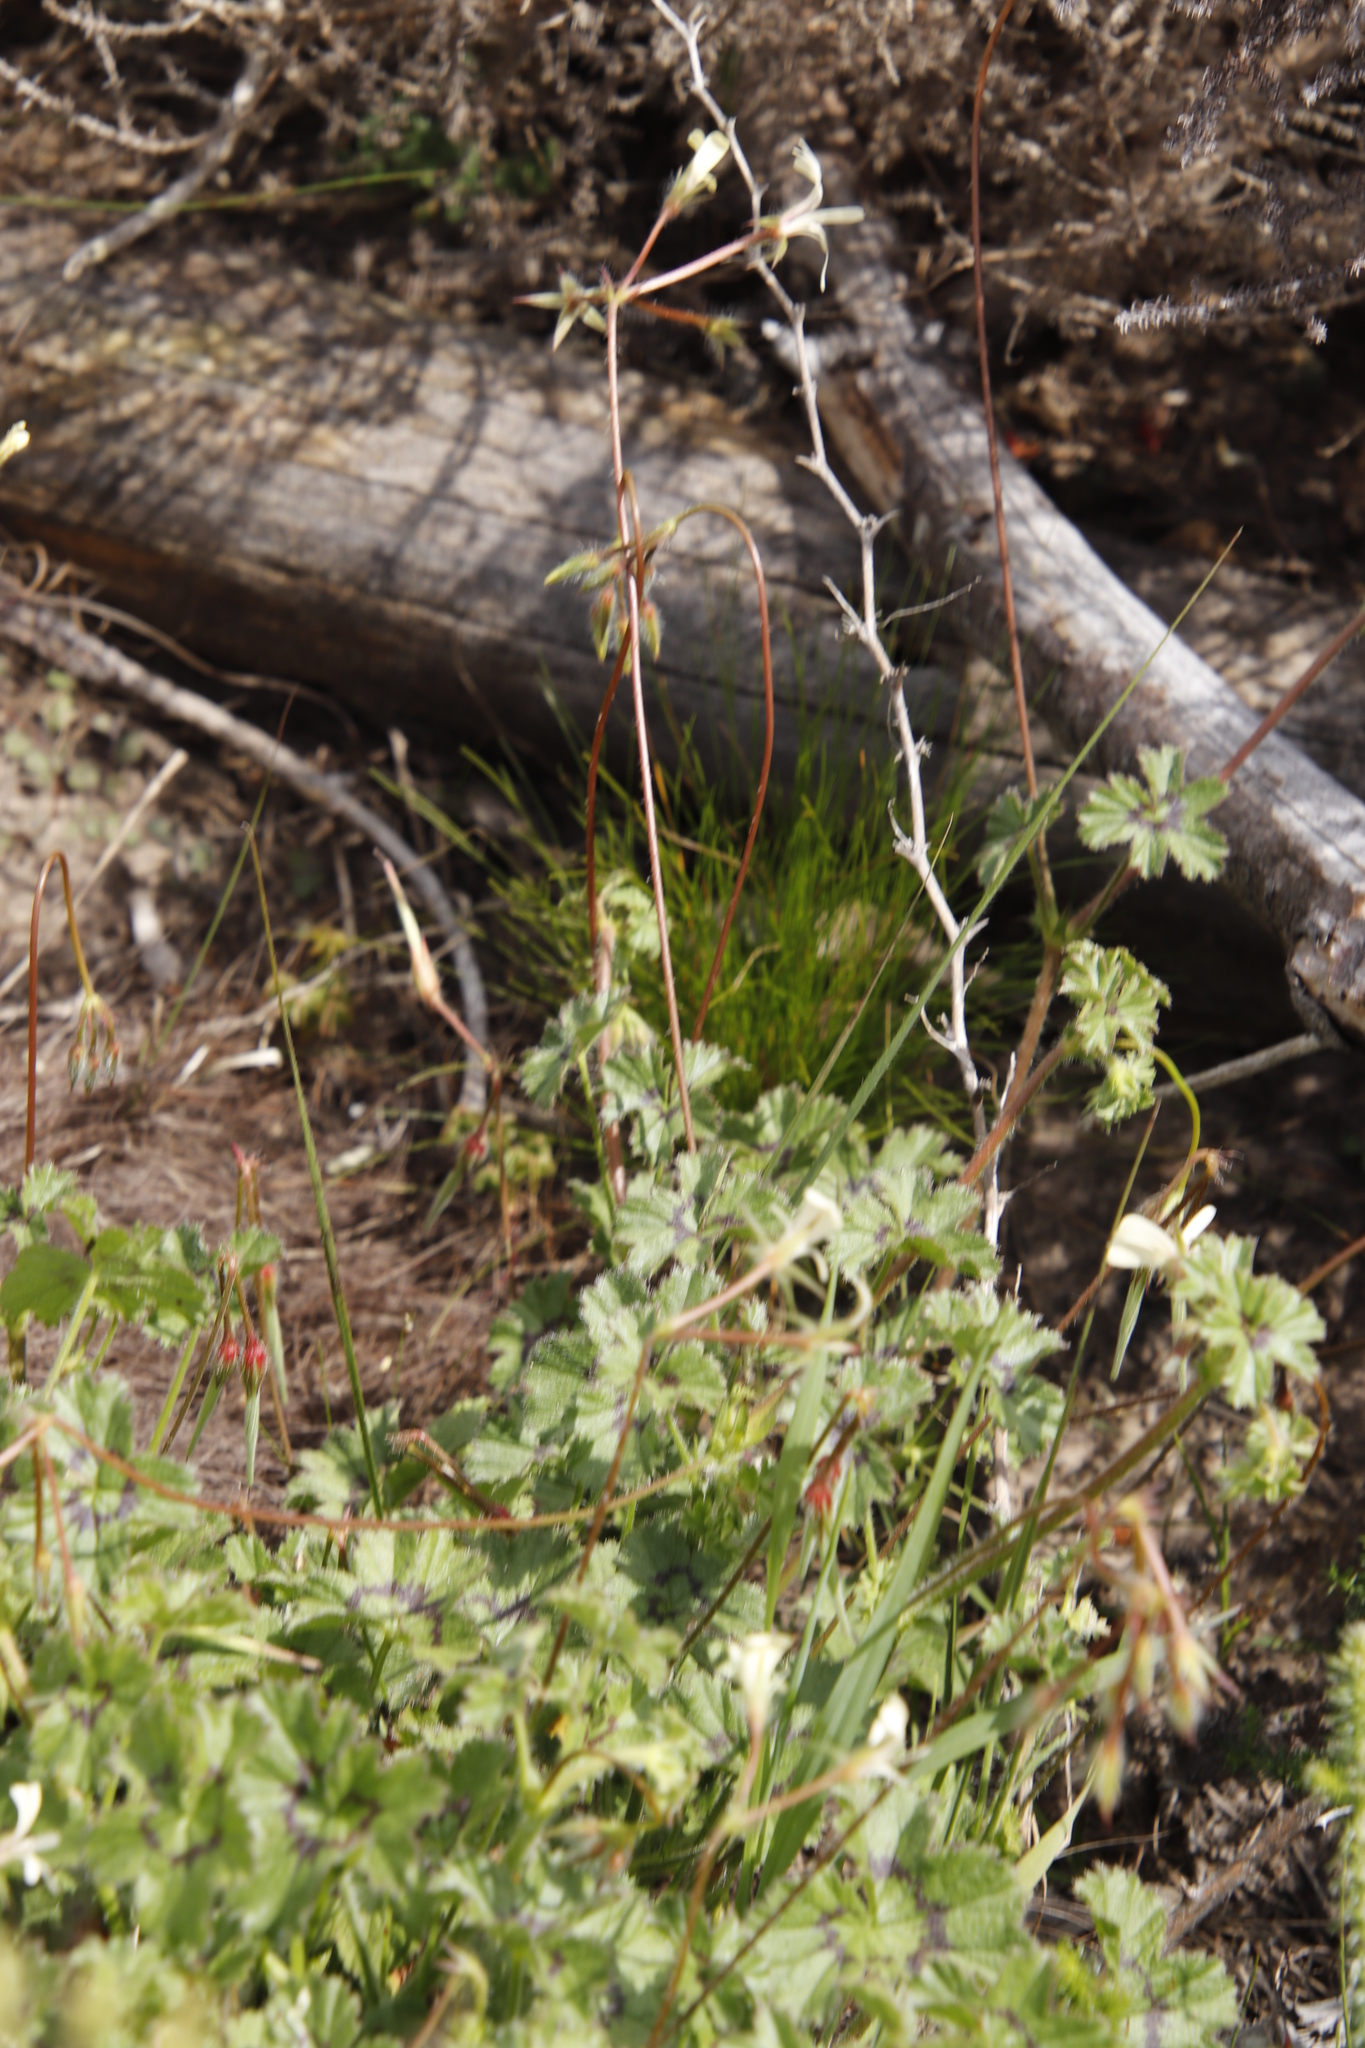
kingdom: Plantae
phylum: Tracheophyta
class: Magnoliopsida
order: Geraniales
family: Geraniaceae
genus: Pelargonium
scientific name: Pelargonium elongatum
